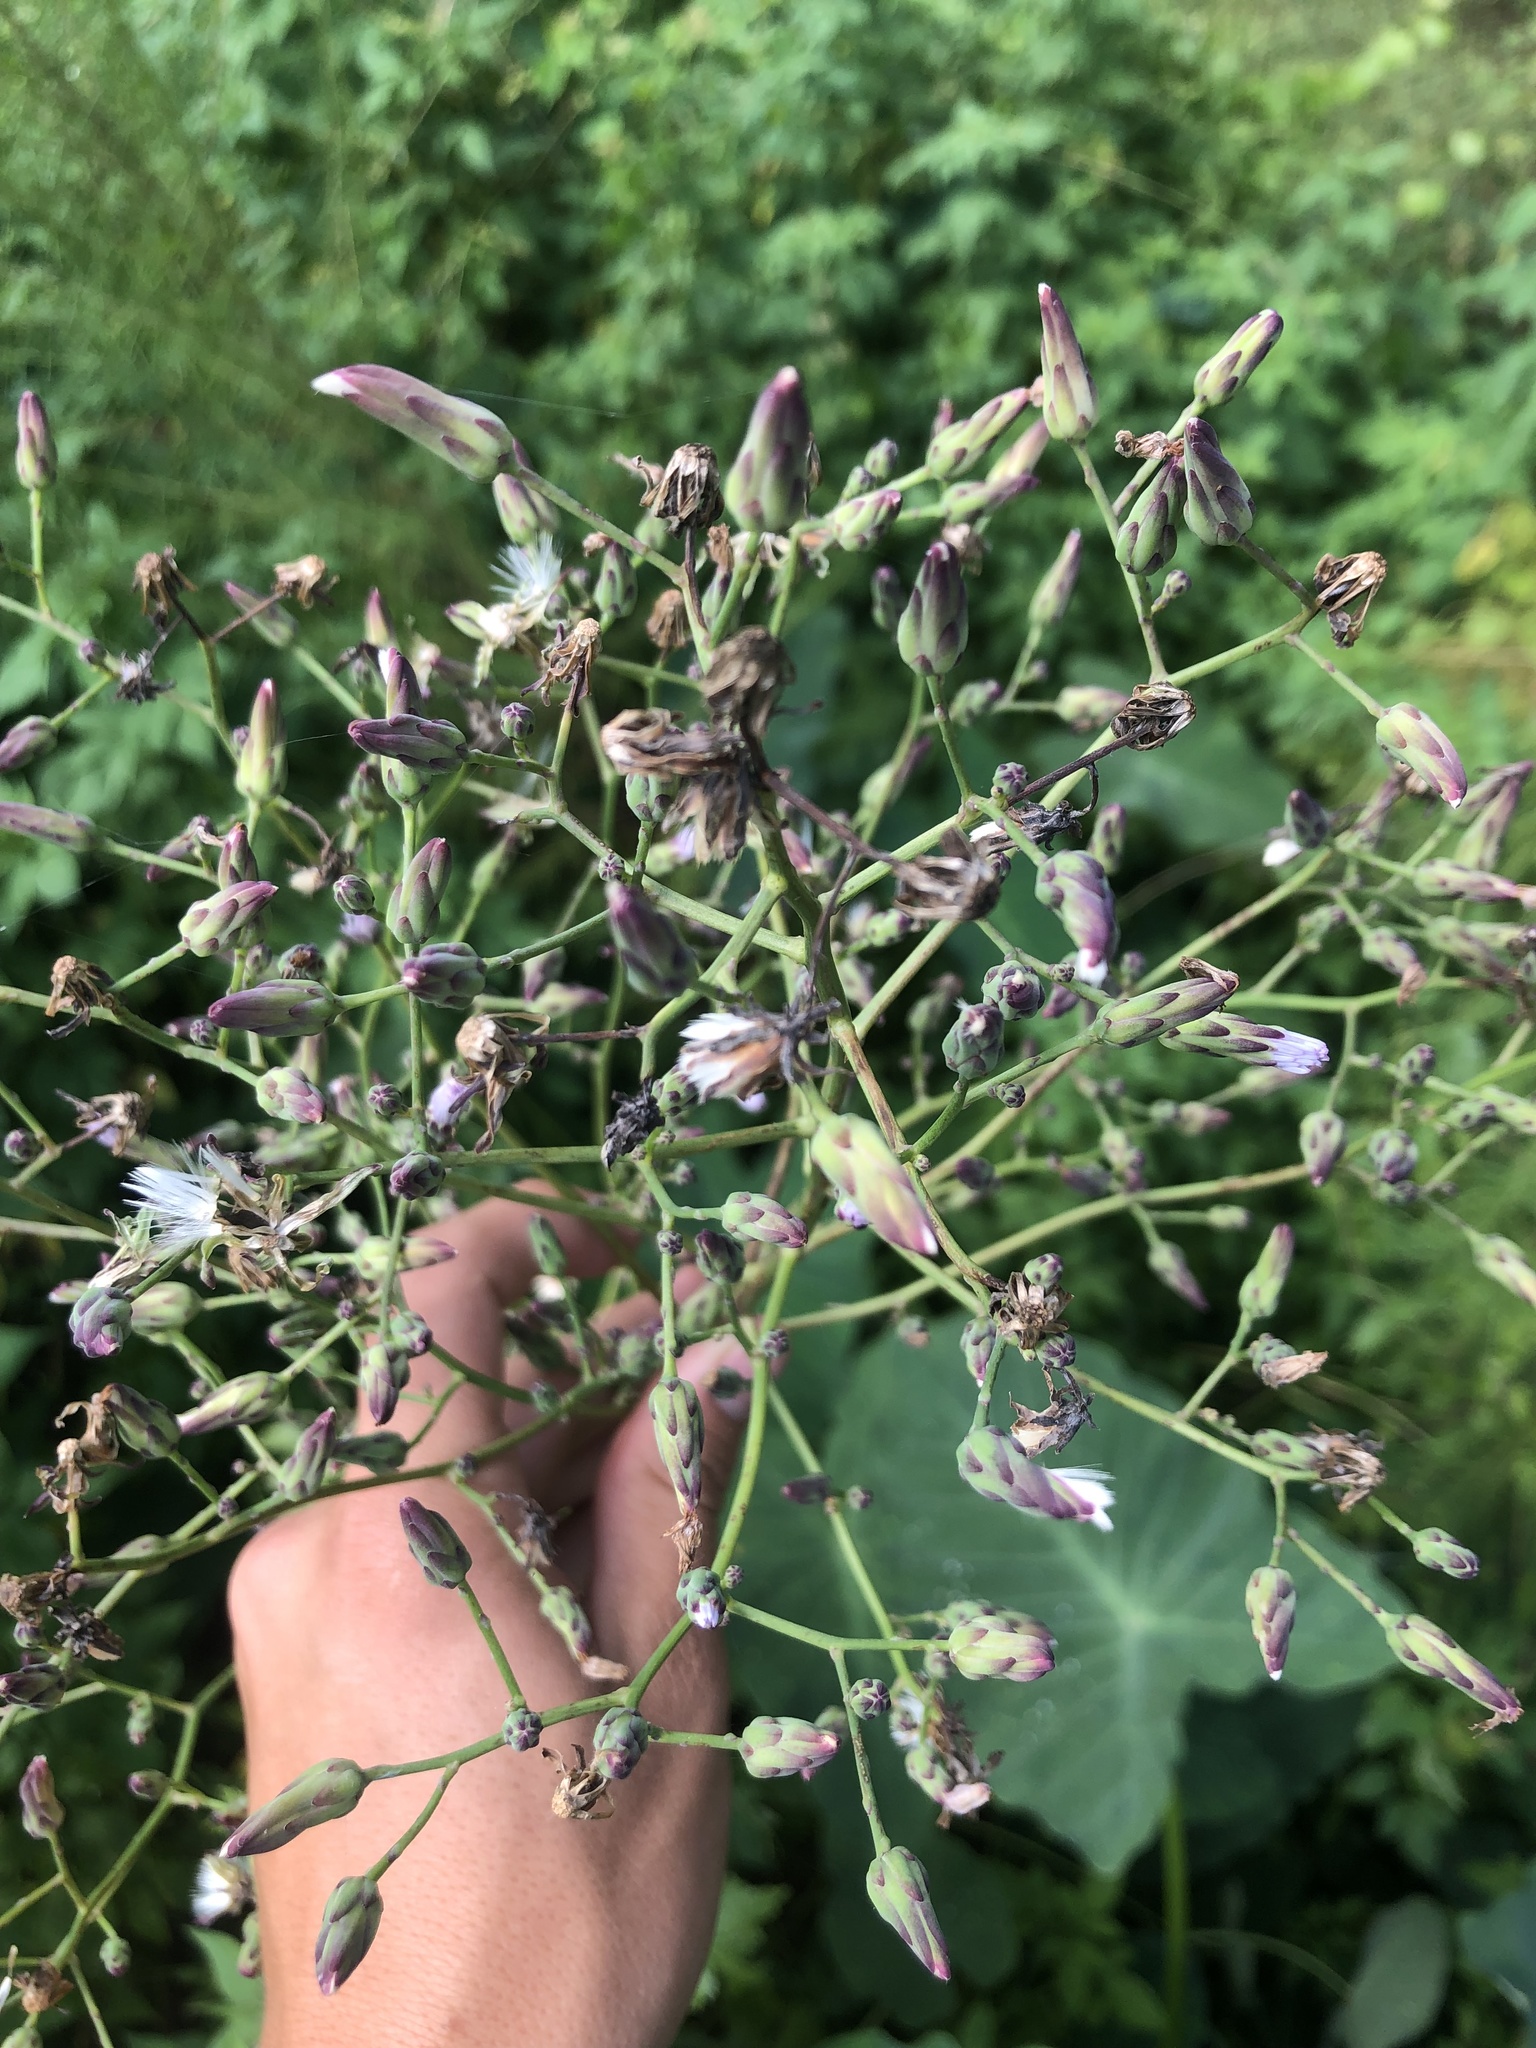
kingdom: Plantae
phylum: Tracheophyta
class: Magnoliopsida
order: Asterales
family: Asteraceae
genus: Lactuca
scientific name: Lactuca floridana
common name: Woodland lettuce
